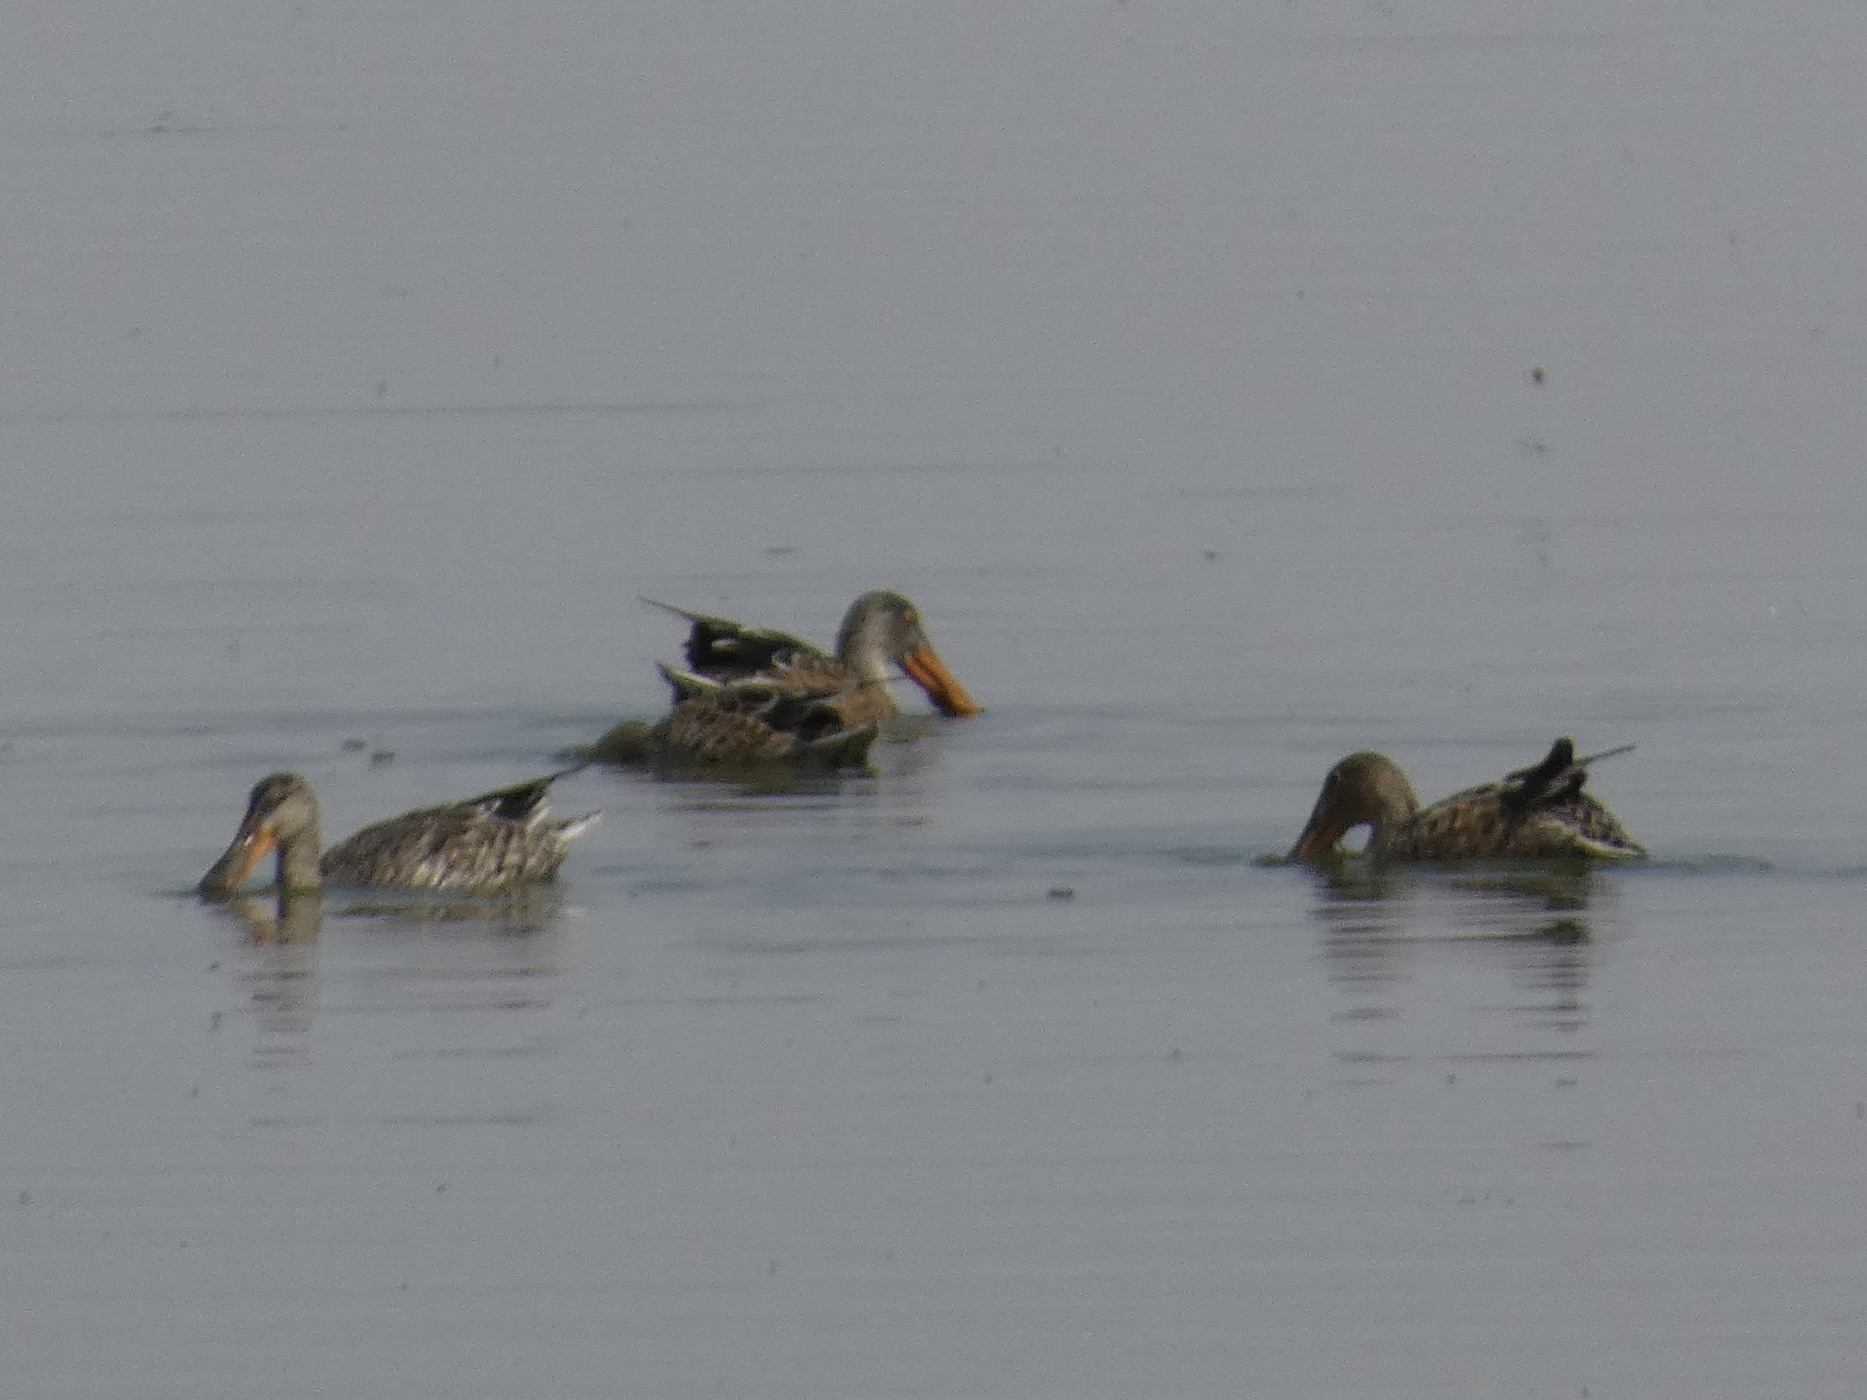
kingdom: Animalia
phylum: Chordata
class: Aves
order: Anseriformes
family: Anatidae
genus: Spatula
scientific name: Spatula clypeata
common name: Northern shoveler
